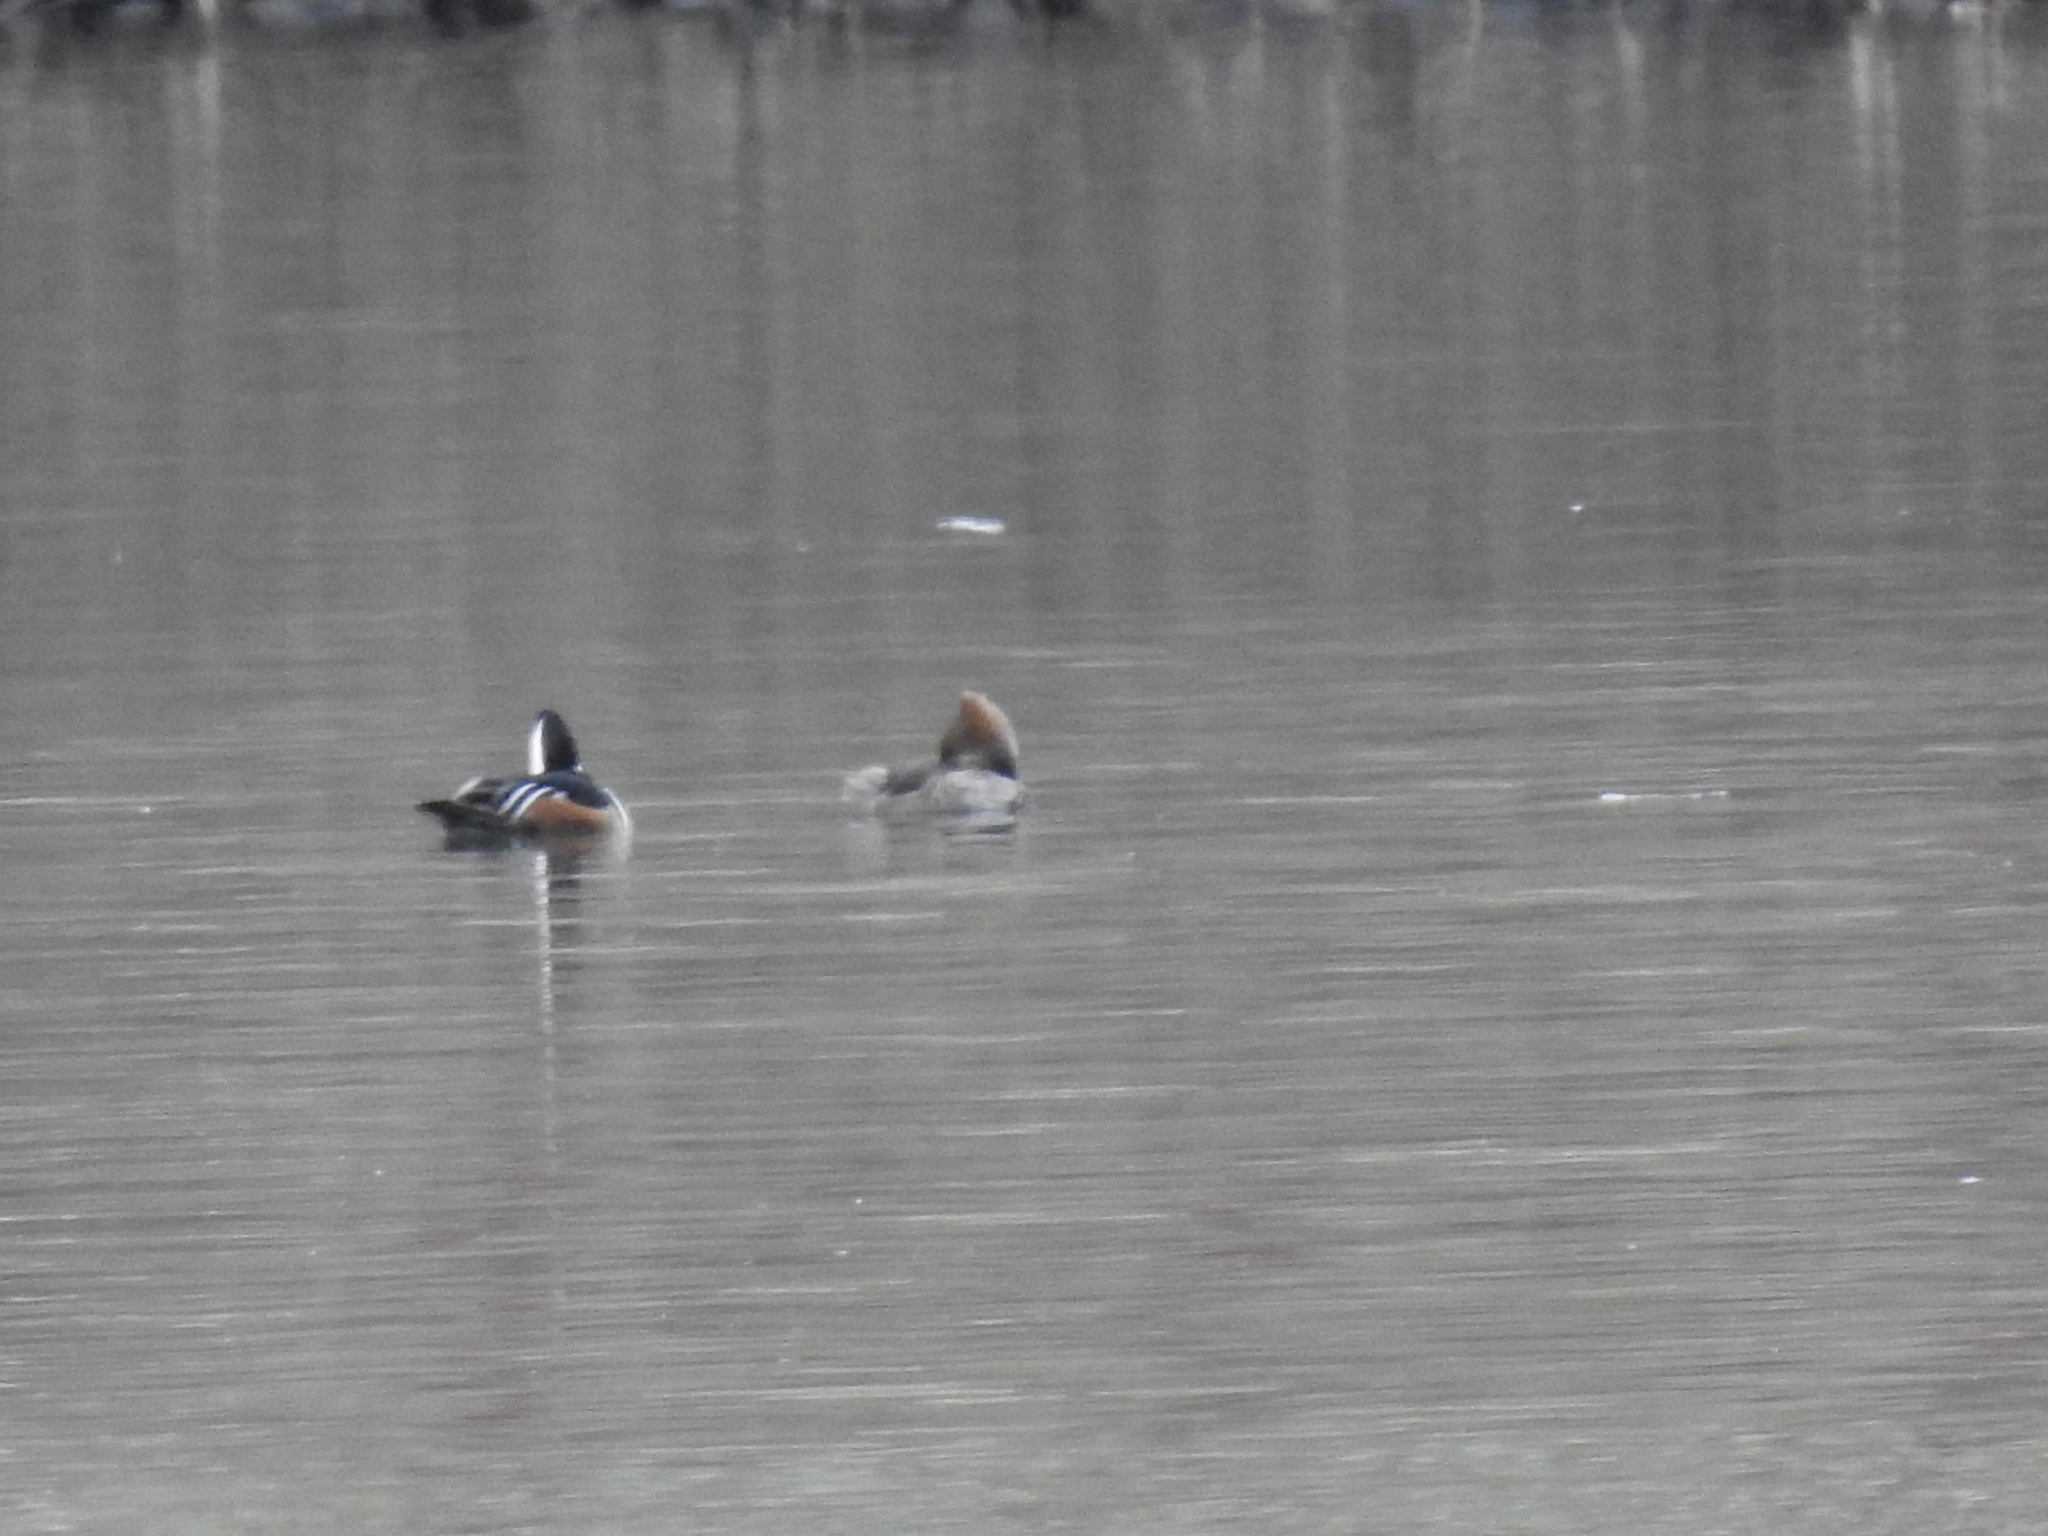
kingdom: Animalia
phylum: Chordata
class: Aves
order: Anseriformes
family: Anatidae
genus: Lophodytes
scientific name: Lophodytes cucullatus
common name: Hooded merganser
